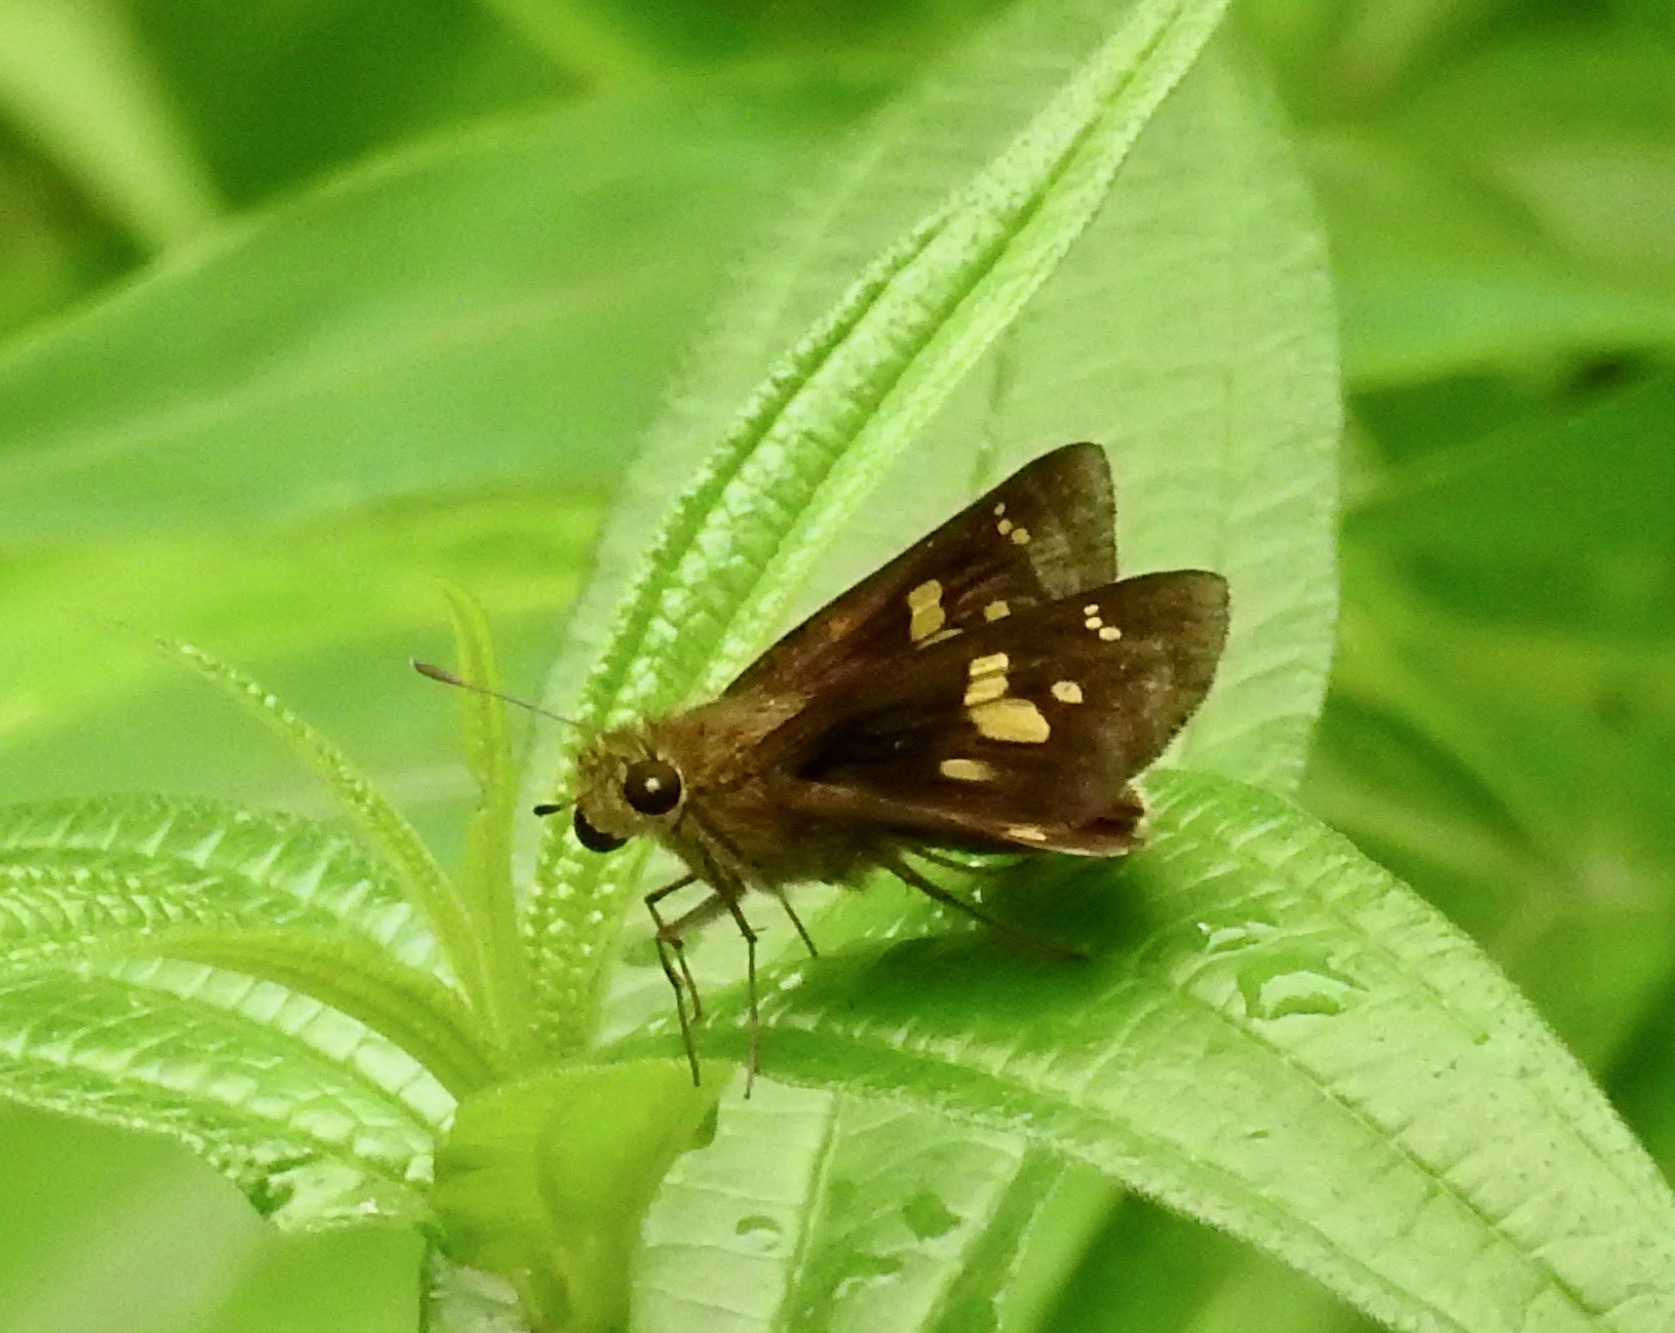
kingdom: Animalia
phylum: Arthropoda
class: Insecta
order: Lepidoptera
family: Hesperiidae
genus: Polytremis
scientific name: Polytremis eltola
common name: Yellow-spot swift
